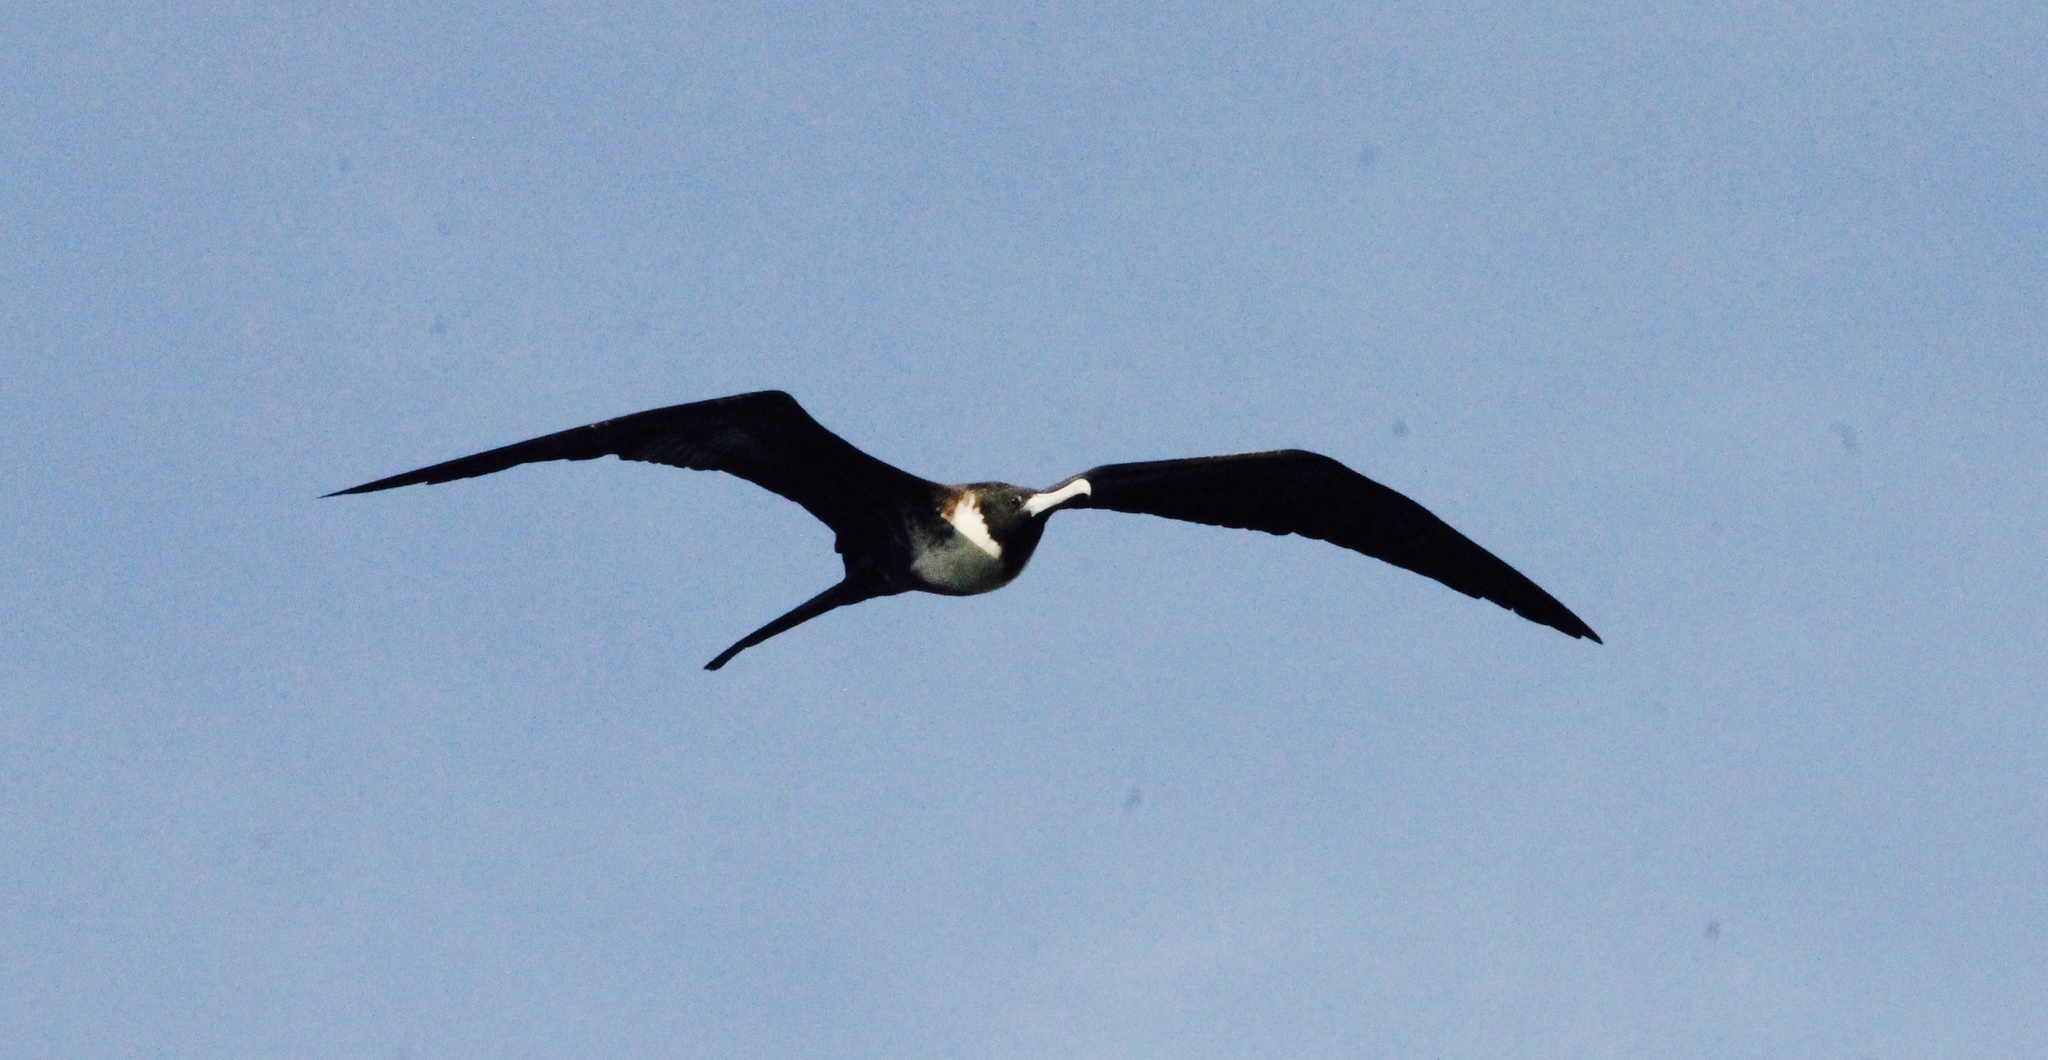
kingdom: Animalia
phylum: Chordata
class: Aves
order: Suliformes
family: Fregatidae
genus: Fregata
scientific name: Fregata magnificens
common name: Magnificent frigatebird
